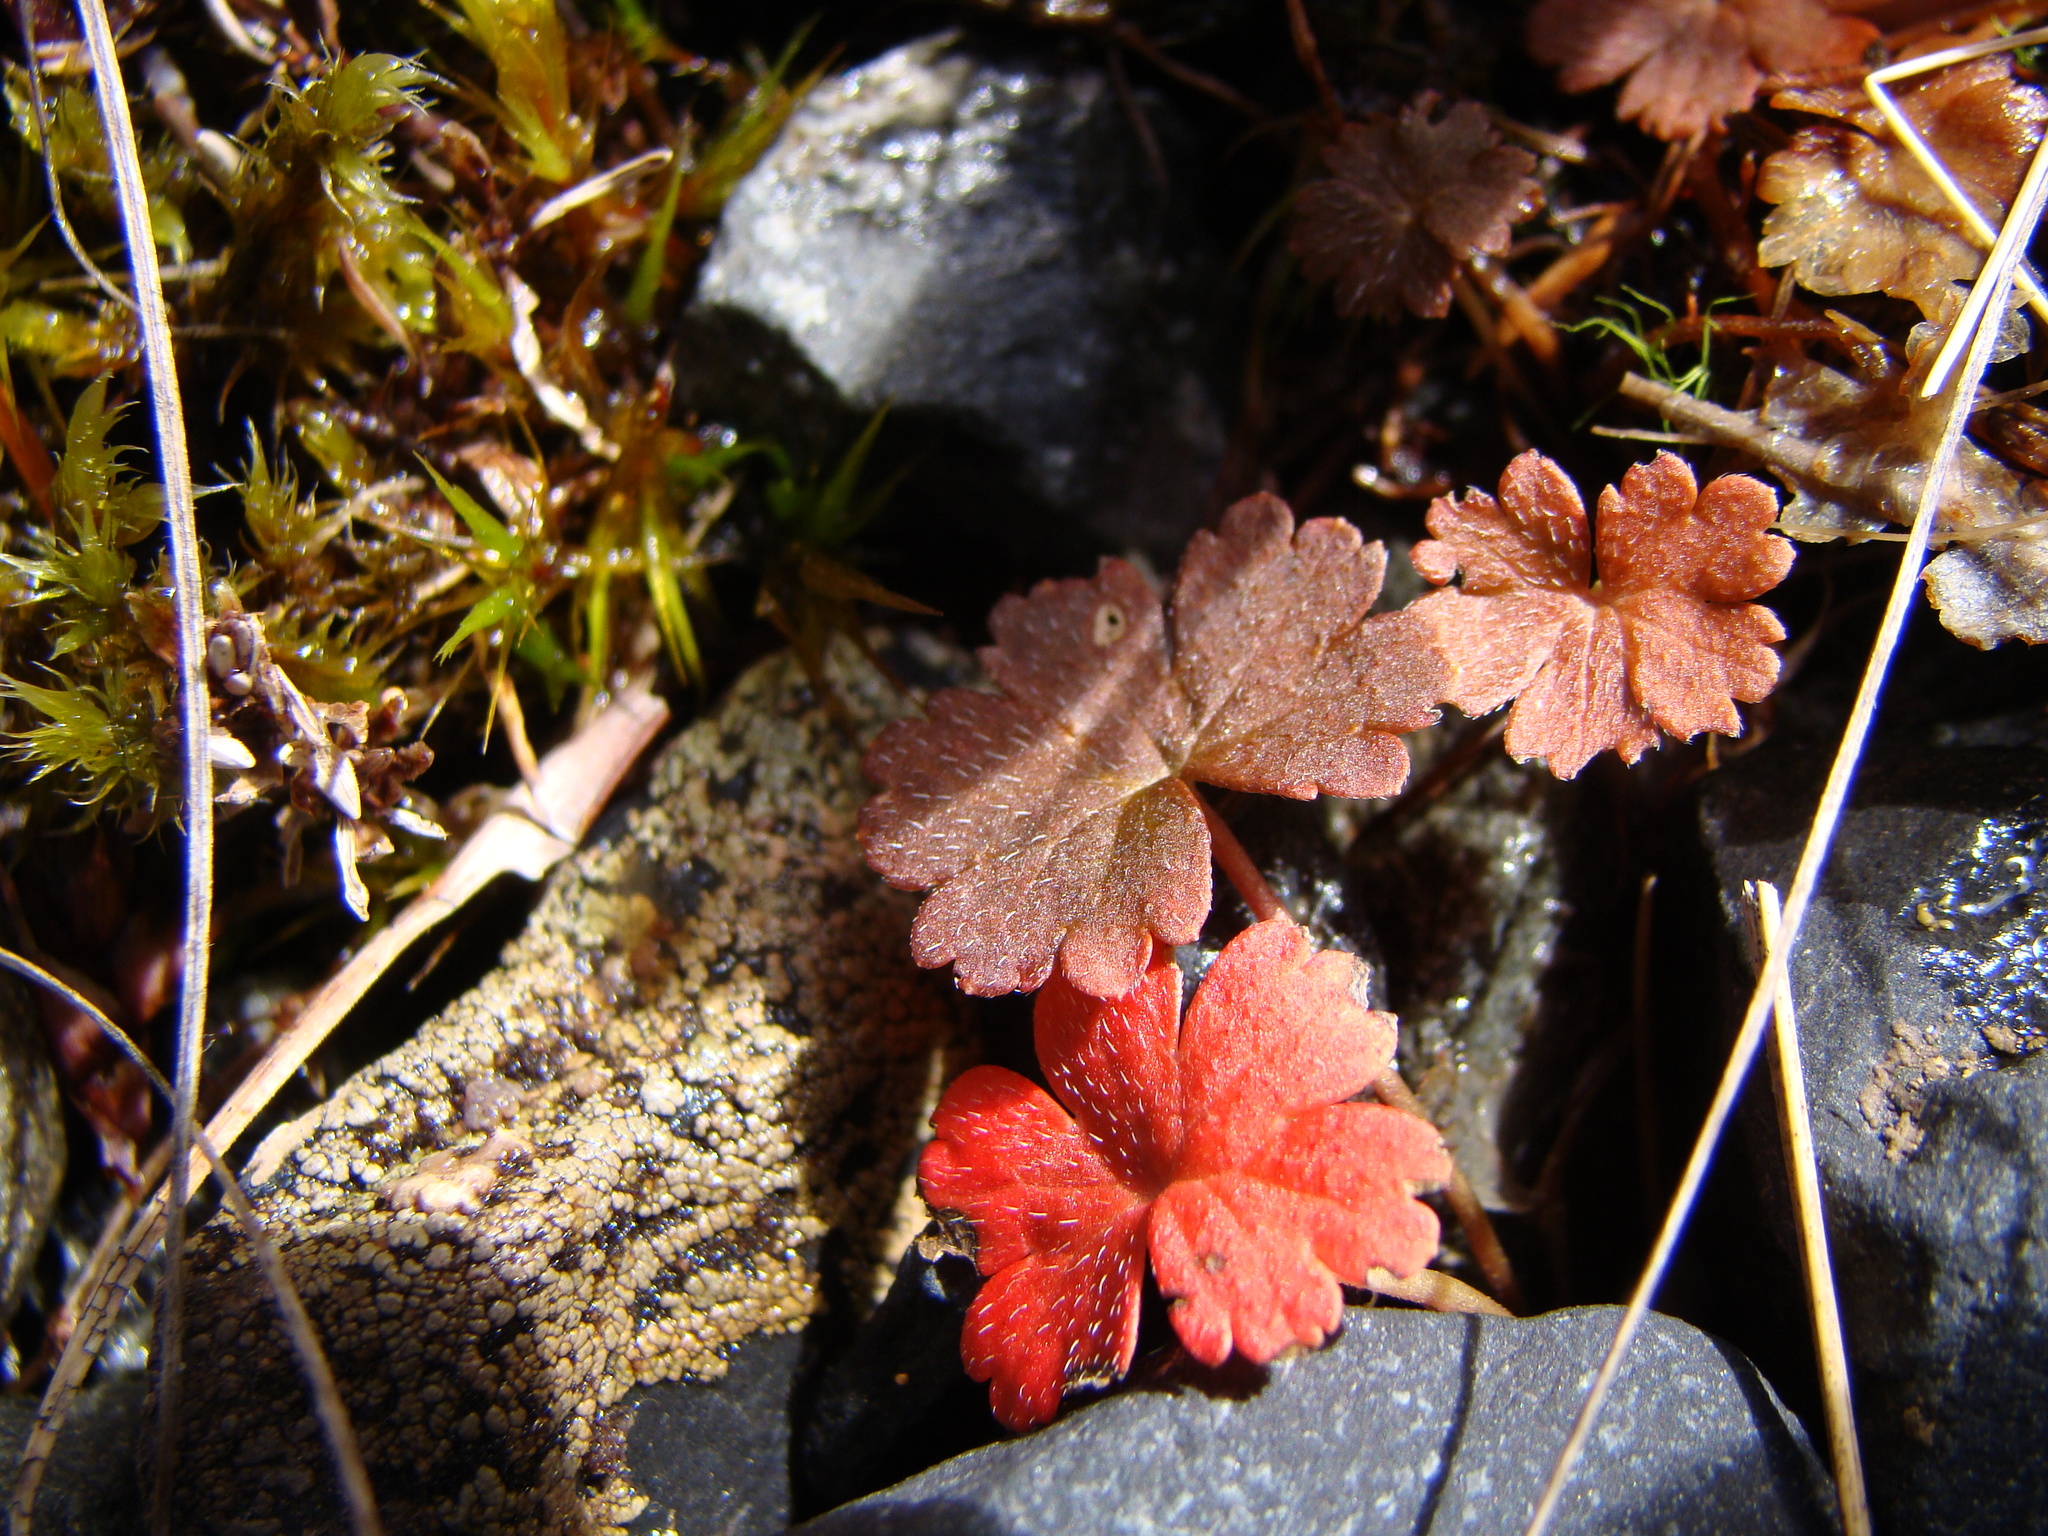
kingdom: Plantae
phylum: Tracheophyta
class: Magnoliopsida
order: Geraniales
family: Geraniaceae
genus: Geranium
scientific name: Geranium brevicaule
